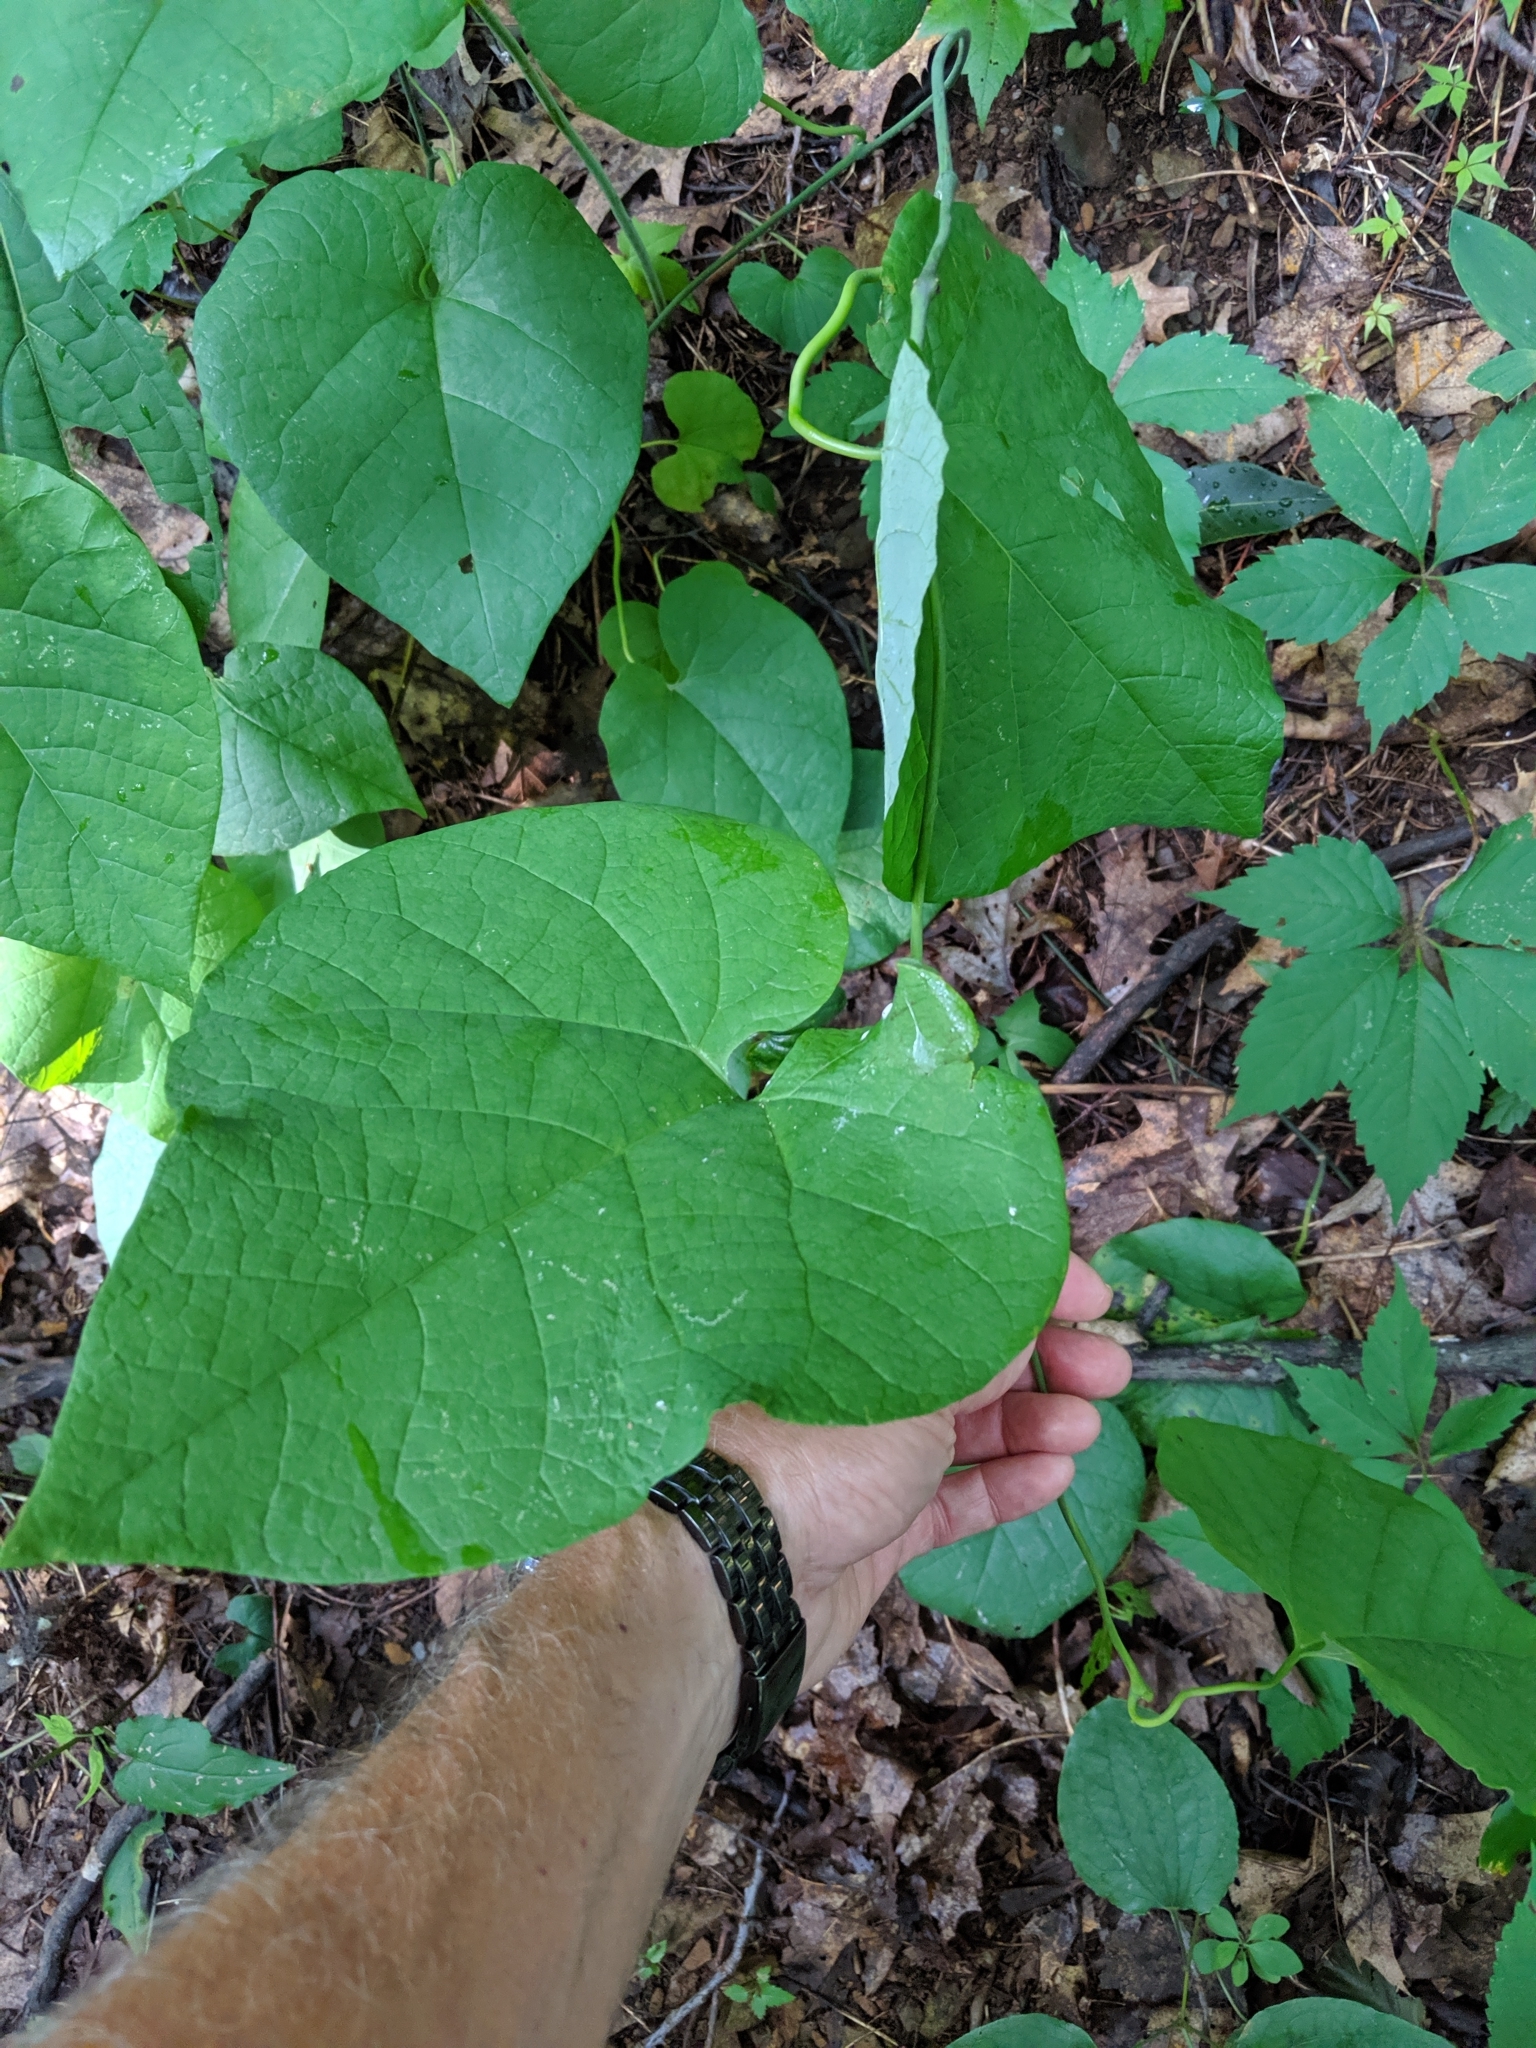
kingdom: Plantae
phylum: Tracheophyta
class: Magnoliopsida
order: Piperales
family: Aristolochiaceae
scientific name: Aristolochiaceae
